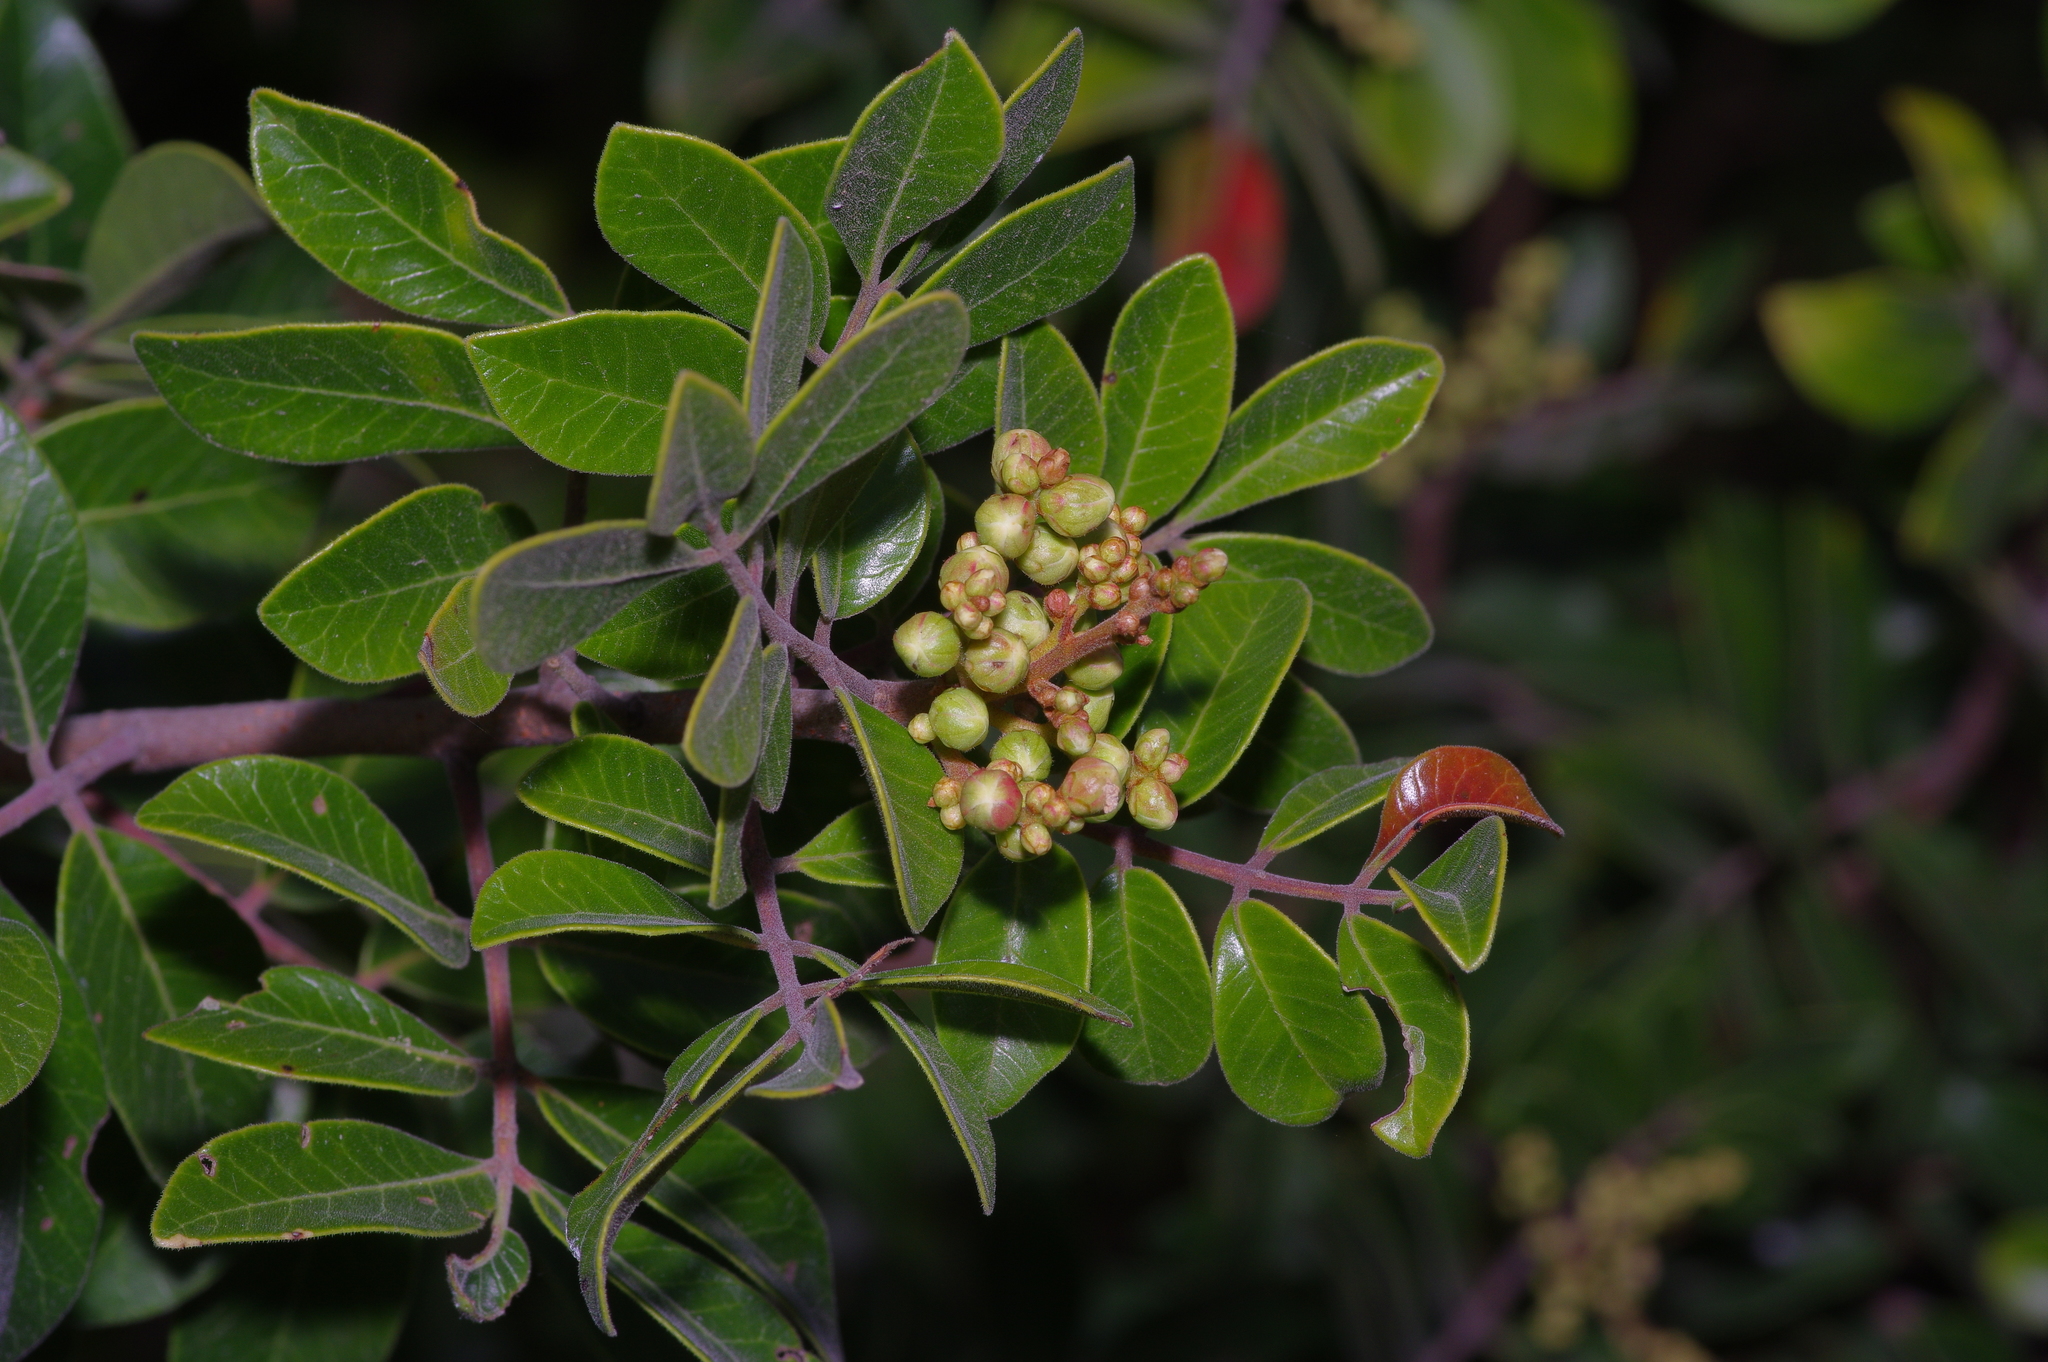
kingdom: Plantae
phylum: Tracheophyta
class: Magnoliopsida
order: Sapindales
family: Anacardiaceae
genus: Rhus
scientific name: Rhus virens
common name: Evergreen sumac
